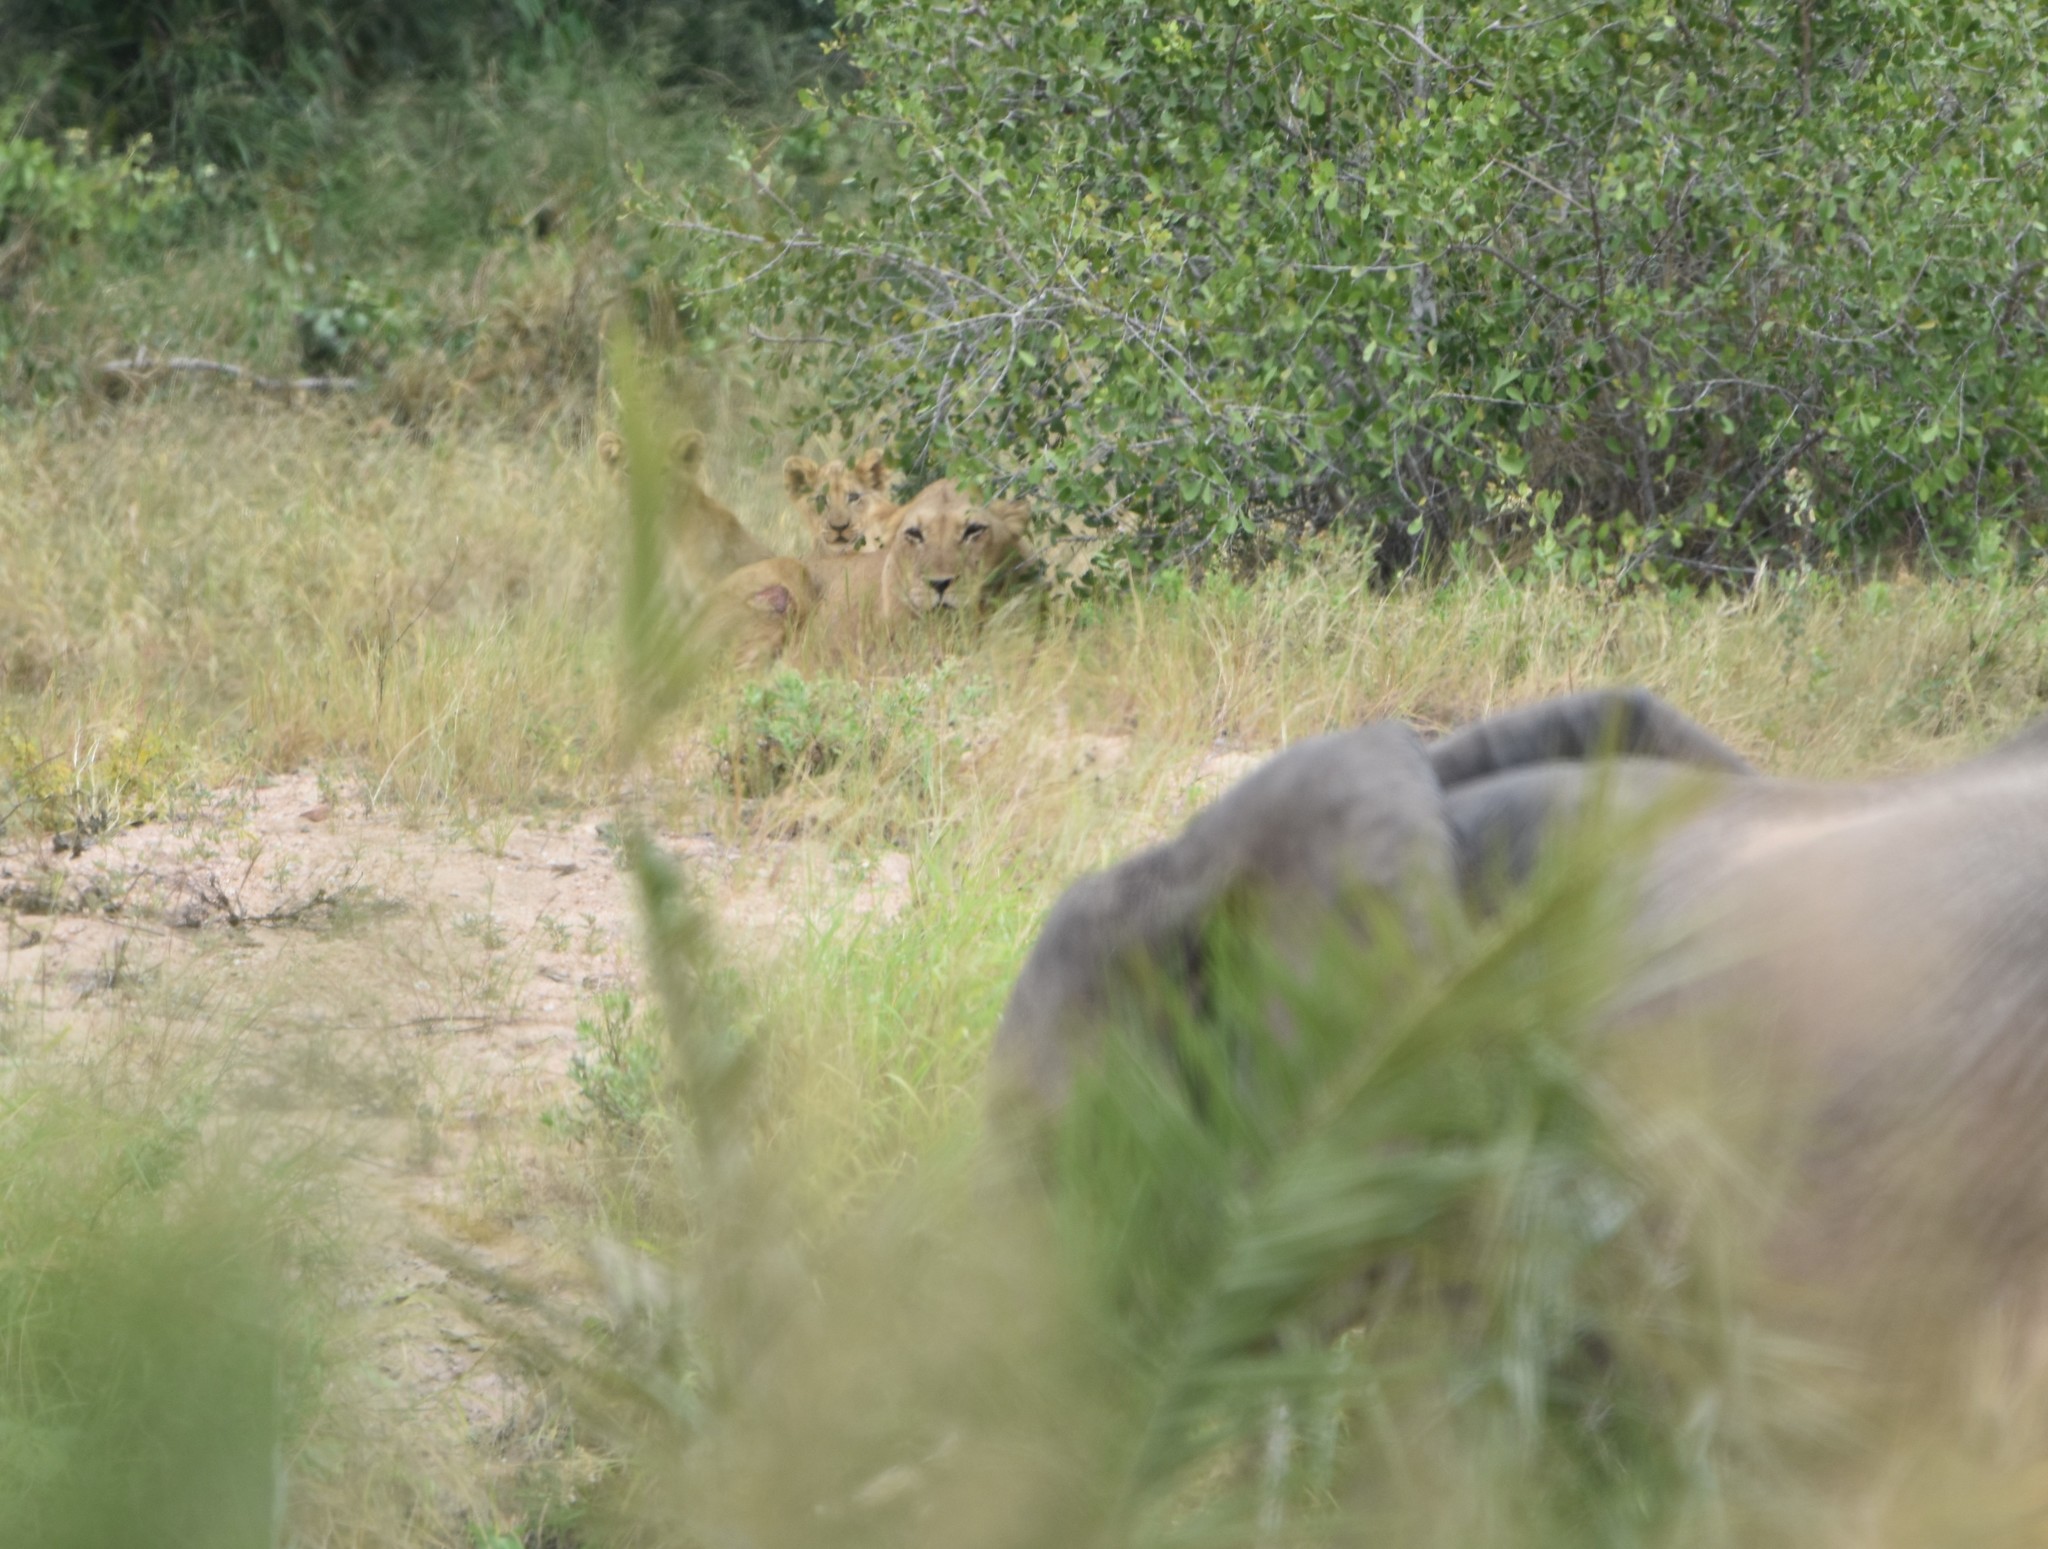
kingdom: Animalia
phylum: Chordata
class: Mammalia
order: Carnivora
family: Felidae
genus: Panthera
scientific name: Panthera leo
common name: Lion
